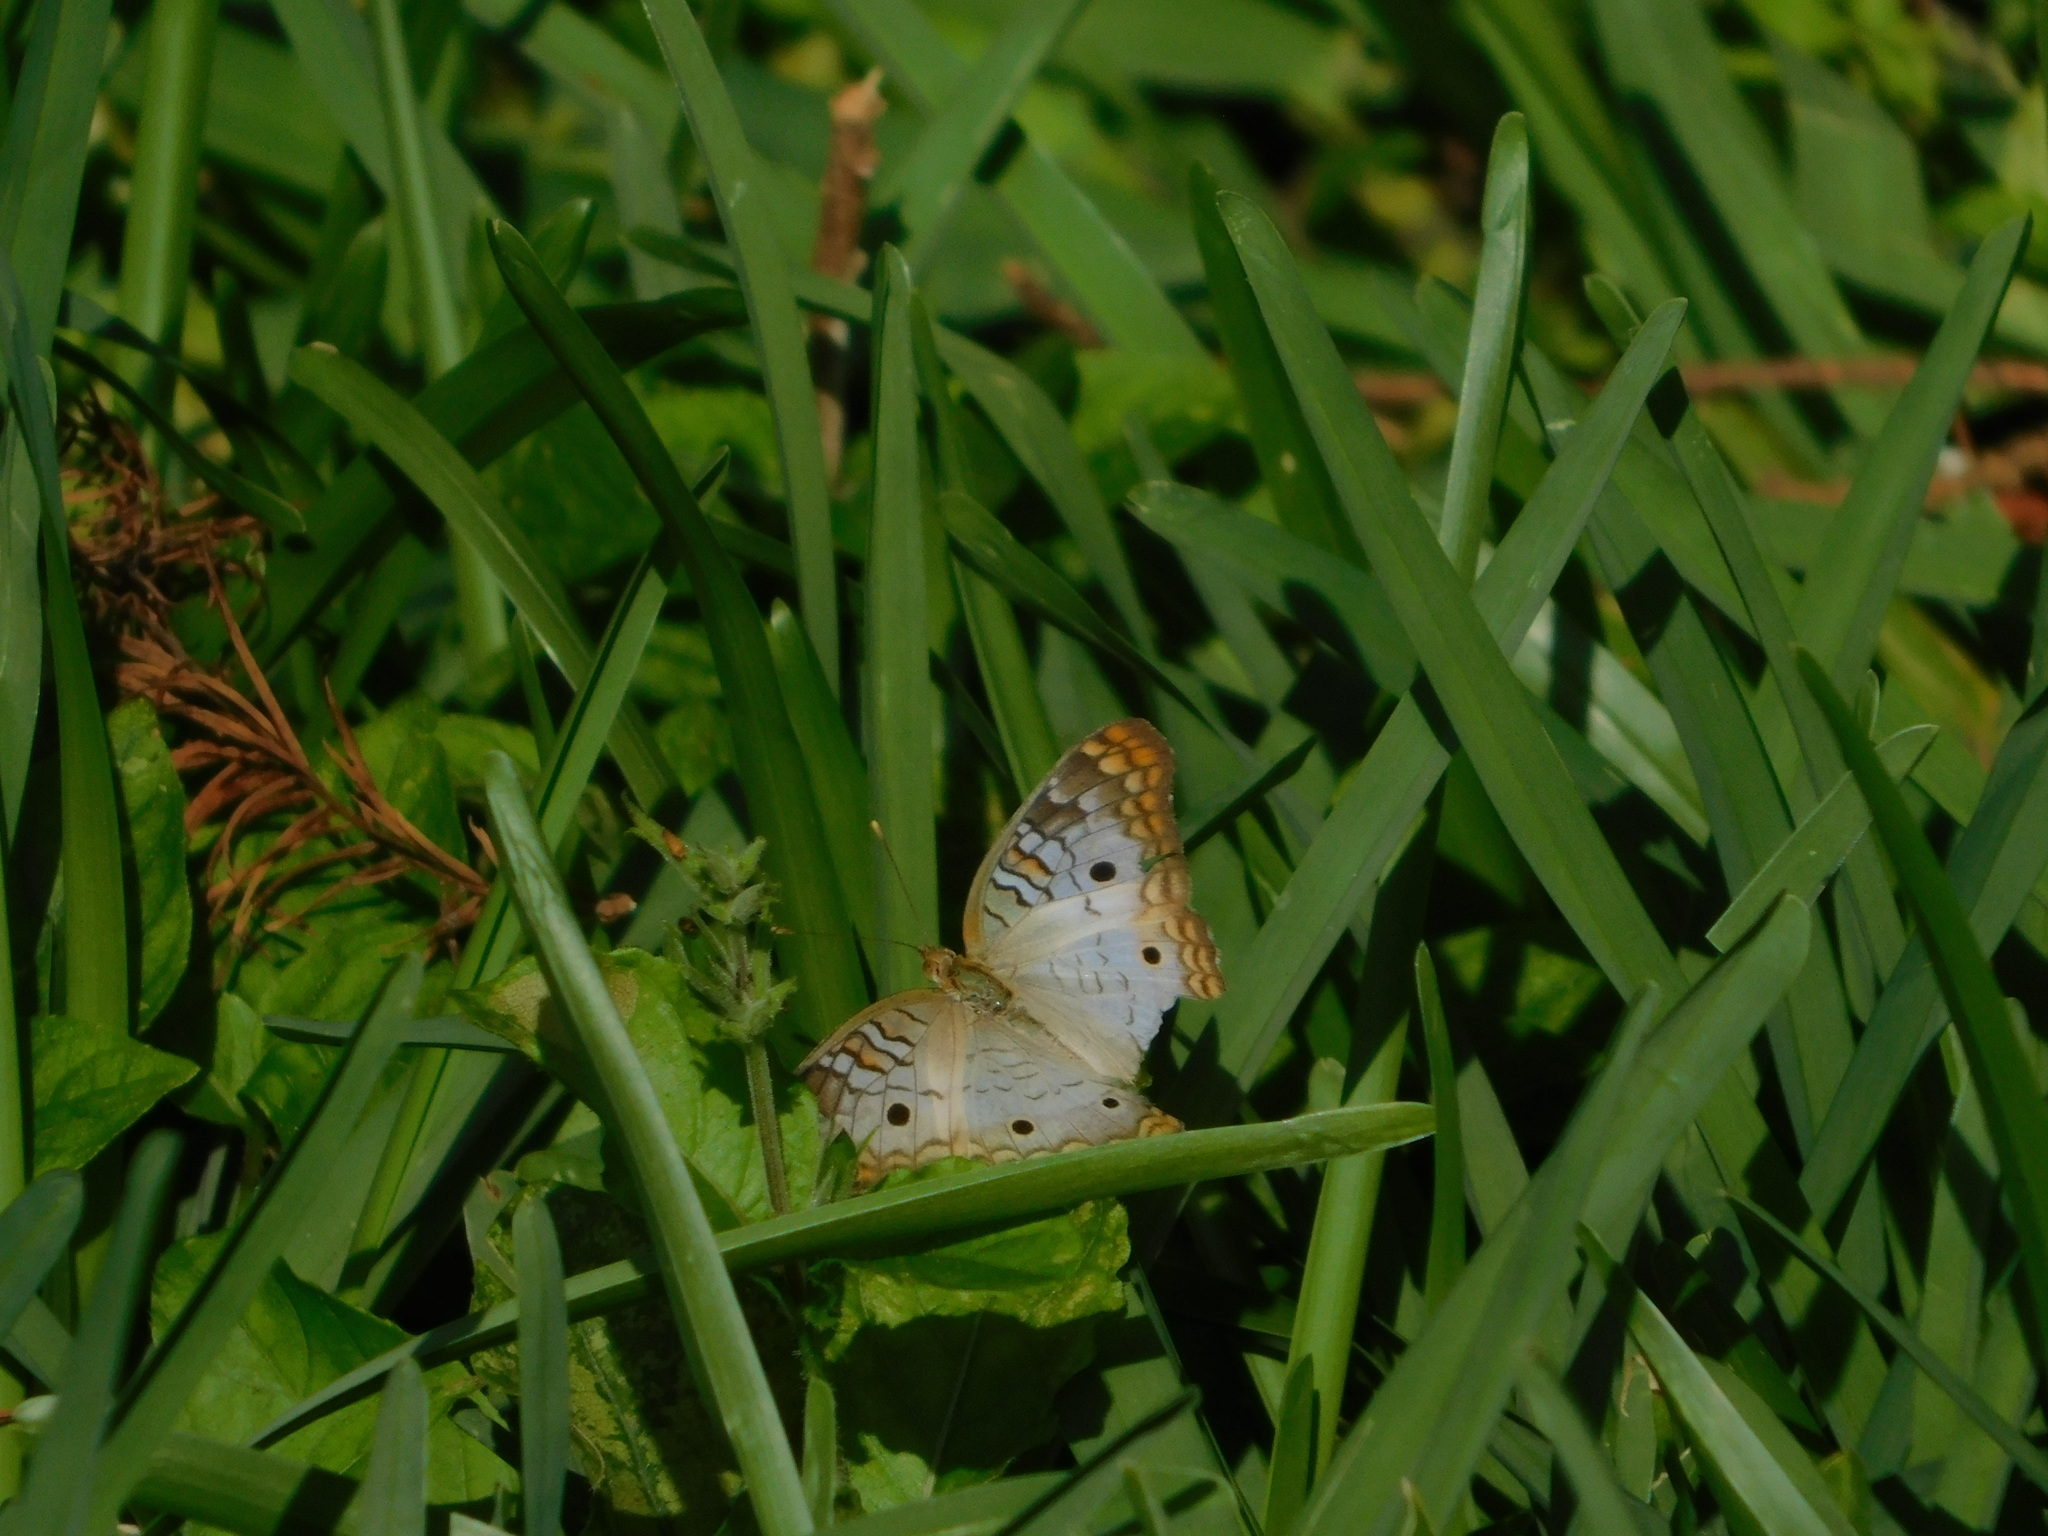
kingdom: Animalia
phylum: Arthropoda
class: Insecta
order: Lepidoptera
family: Nymphalidae
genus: Anartia
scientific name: Anartia jatrophae
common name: White peacock
